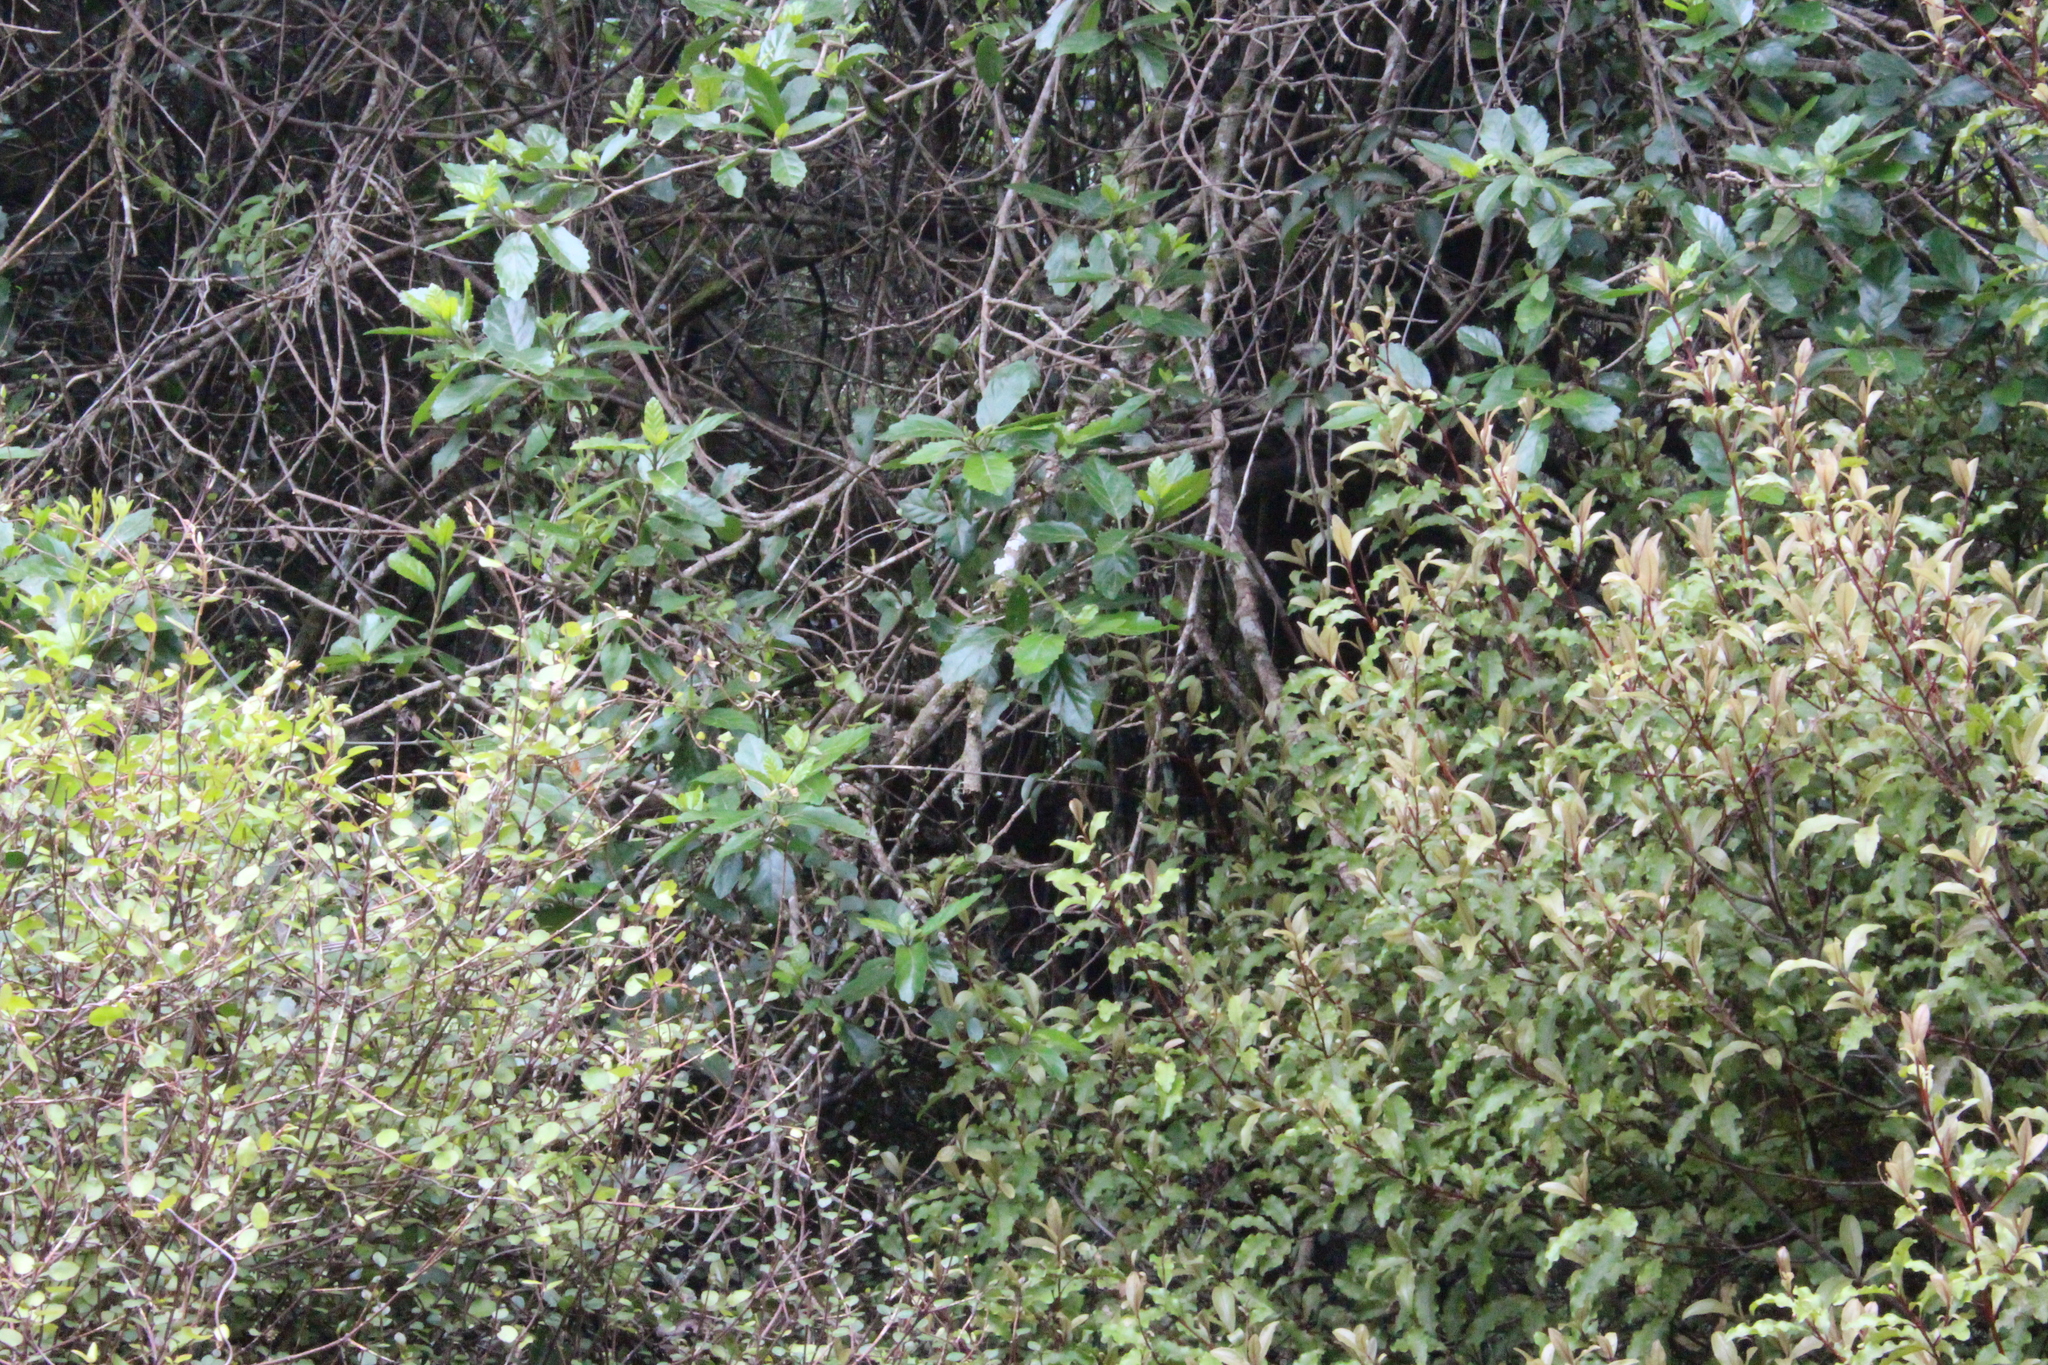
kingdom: Plantae
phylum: Tracheophyta
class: Magnoliopsida
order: Apiales
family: Pennantiaceae
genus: Pennantia
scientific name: Pennantia corymbosa
